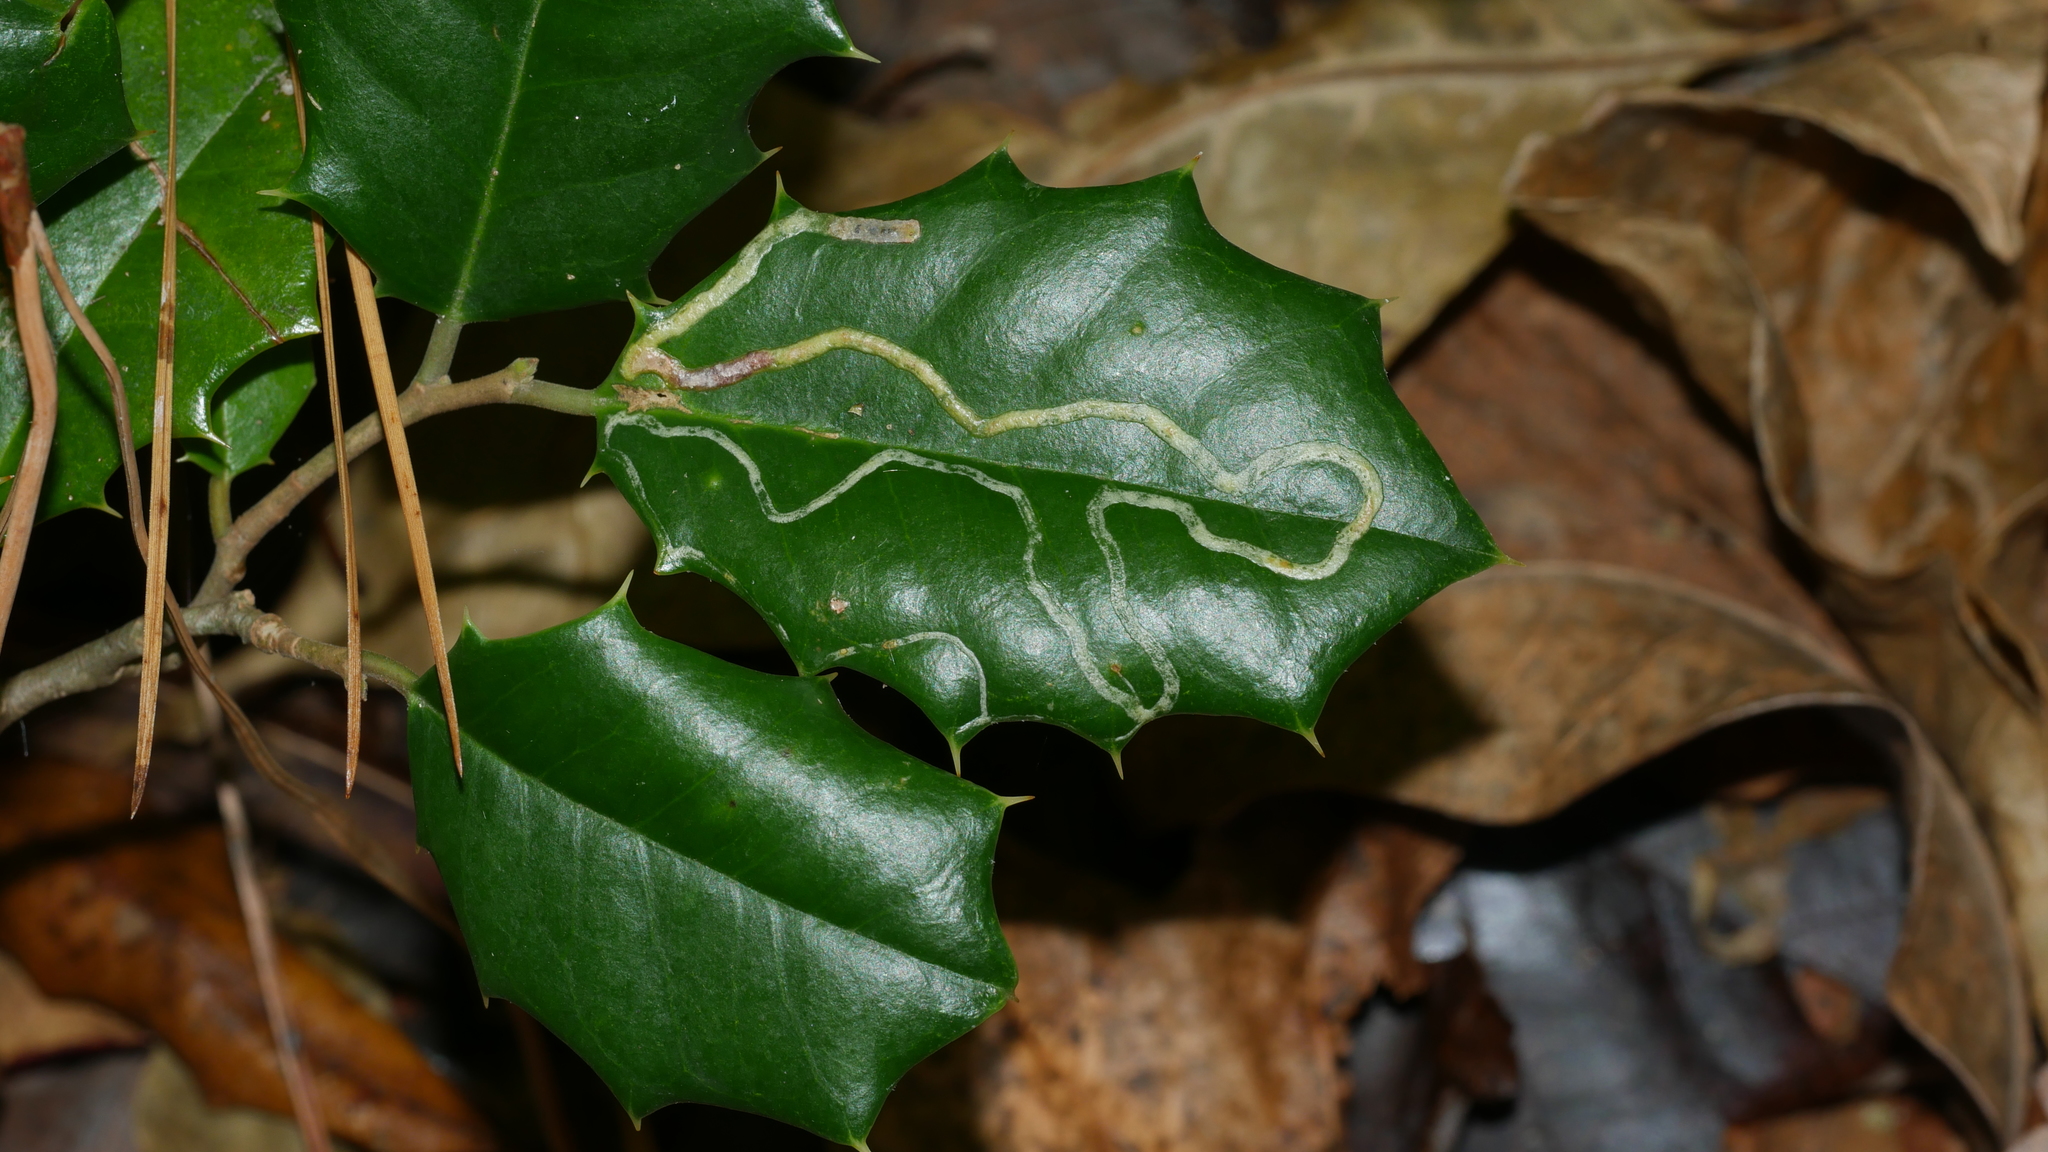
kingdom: Animalia
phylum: Arthropoda
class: Insecta
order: Diptera
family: Agromyzidae
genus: Phytomyza
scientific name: Phytomyza opacae
